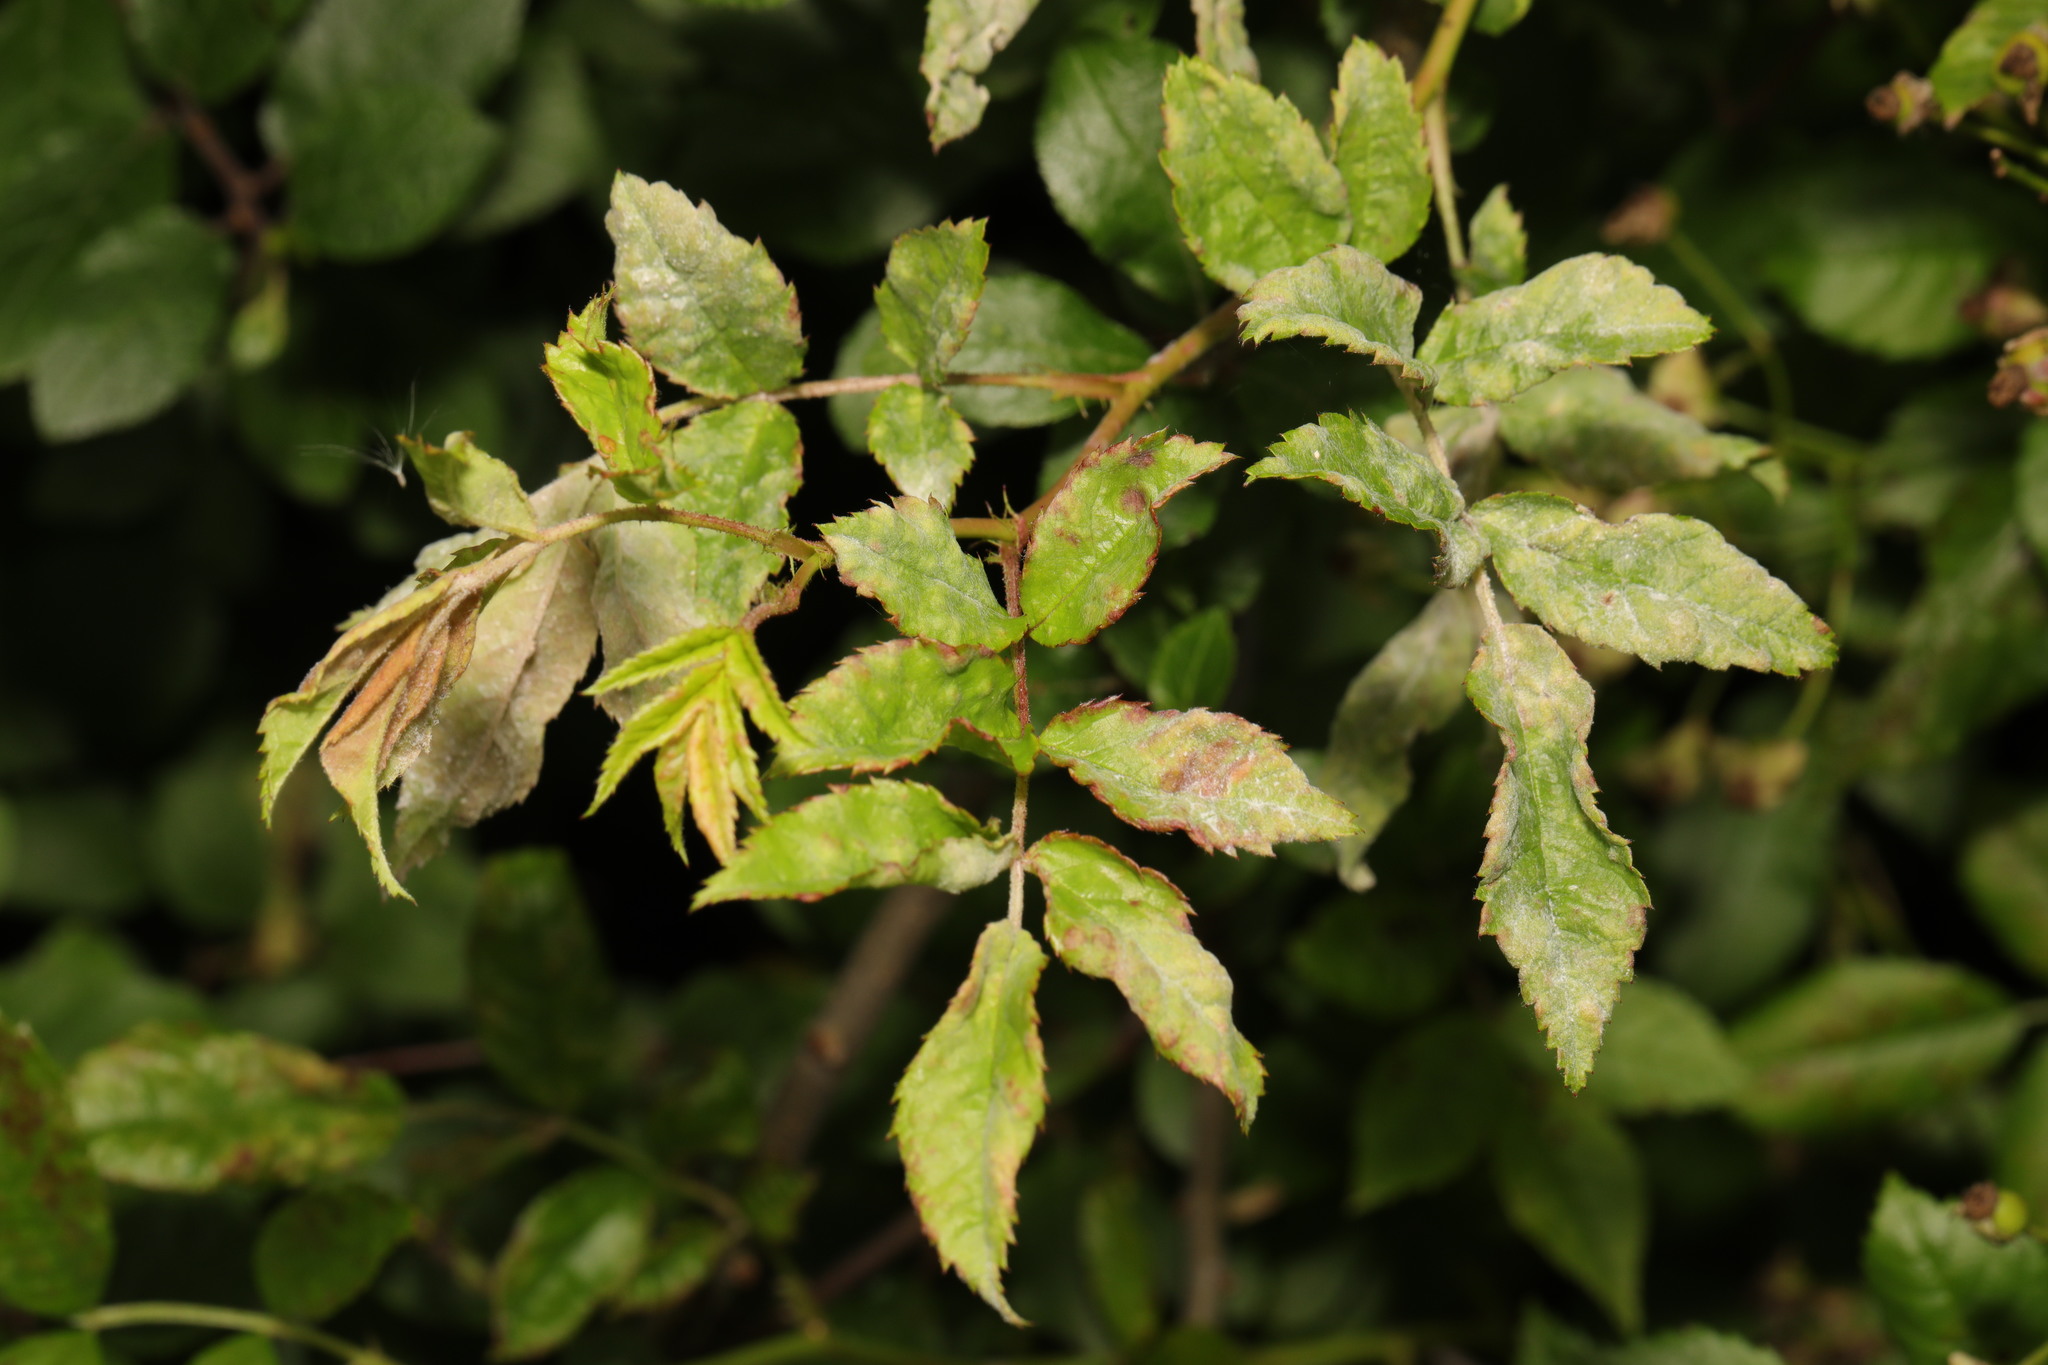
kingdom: Plantae
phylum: Tracheophyta
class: Magnoliopsida
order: Rosales
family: Rosaceae
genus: Rosa
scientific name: Rosa multiflora
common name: Multiflora rose
